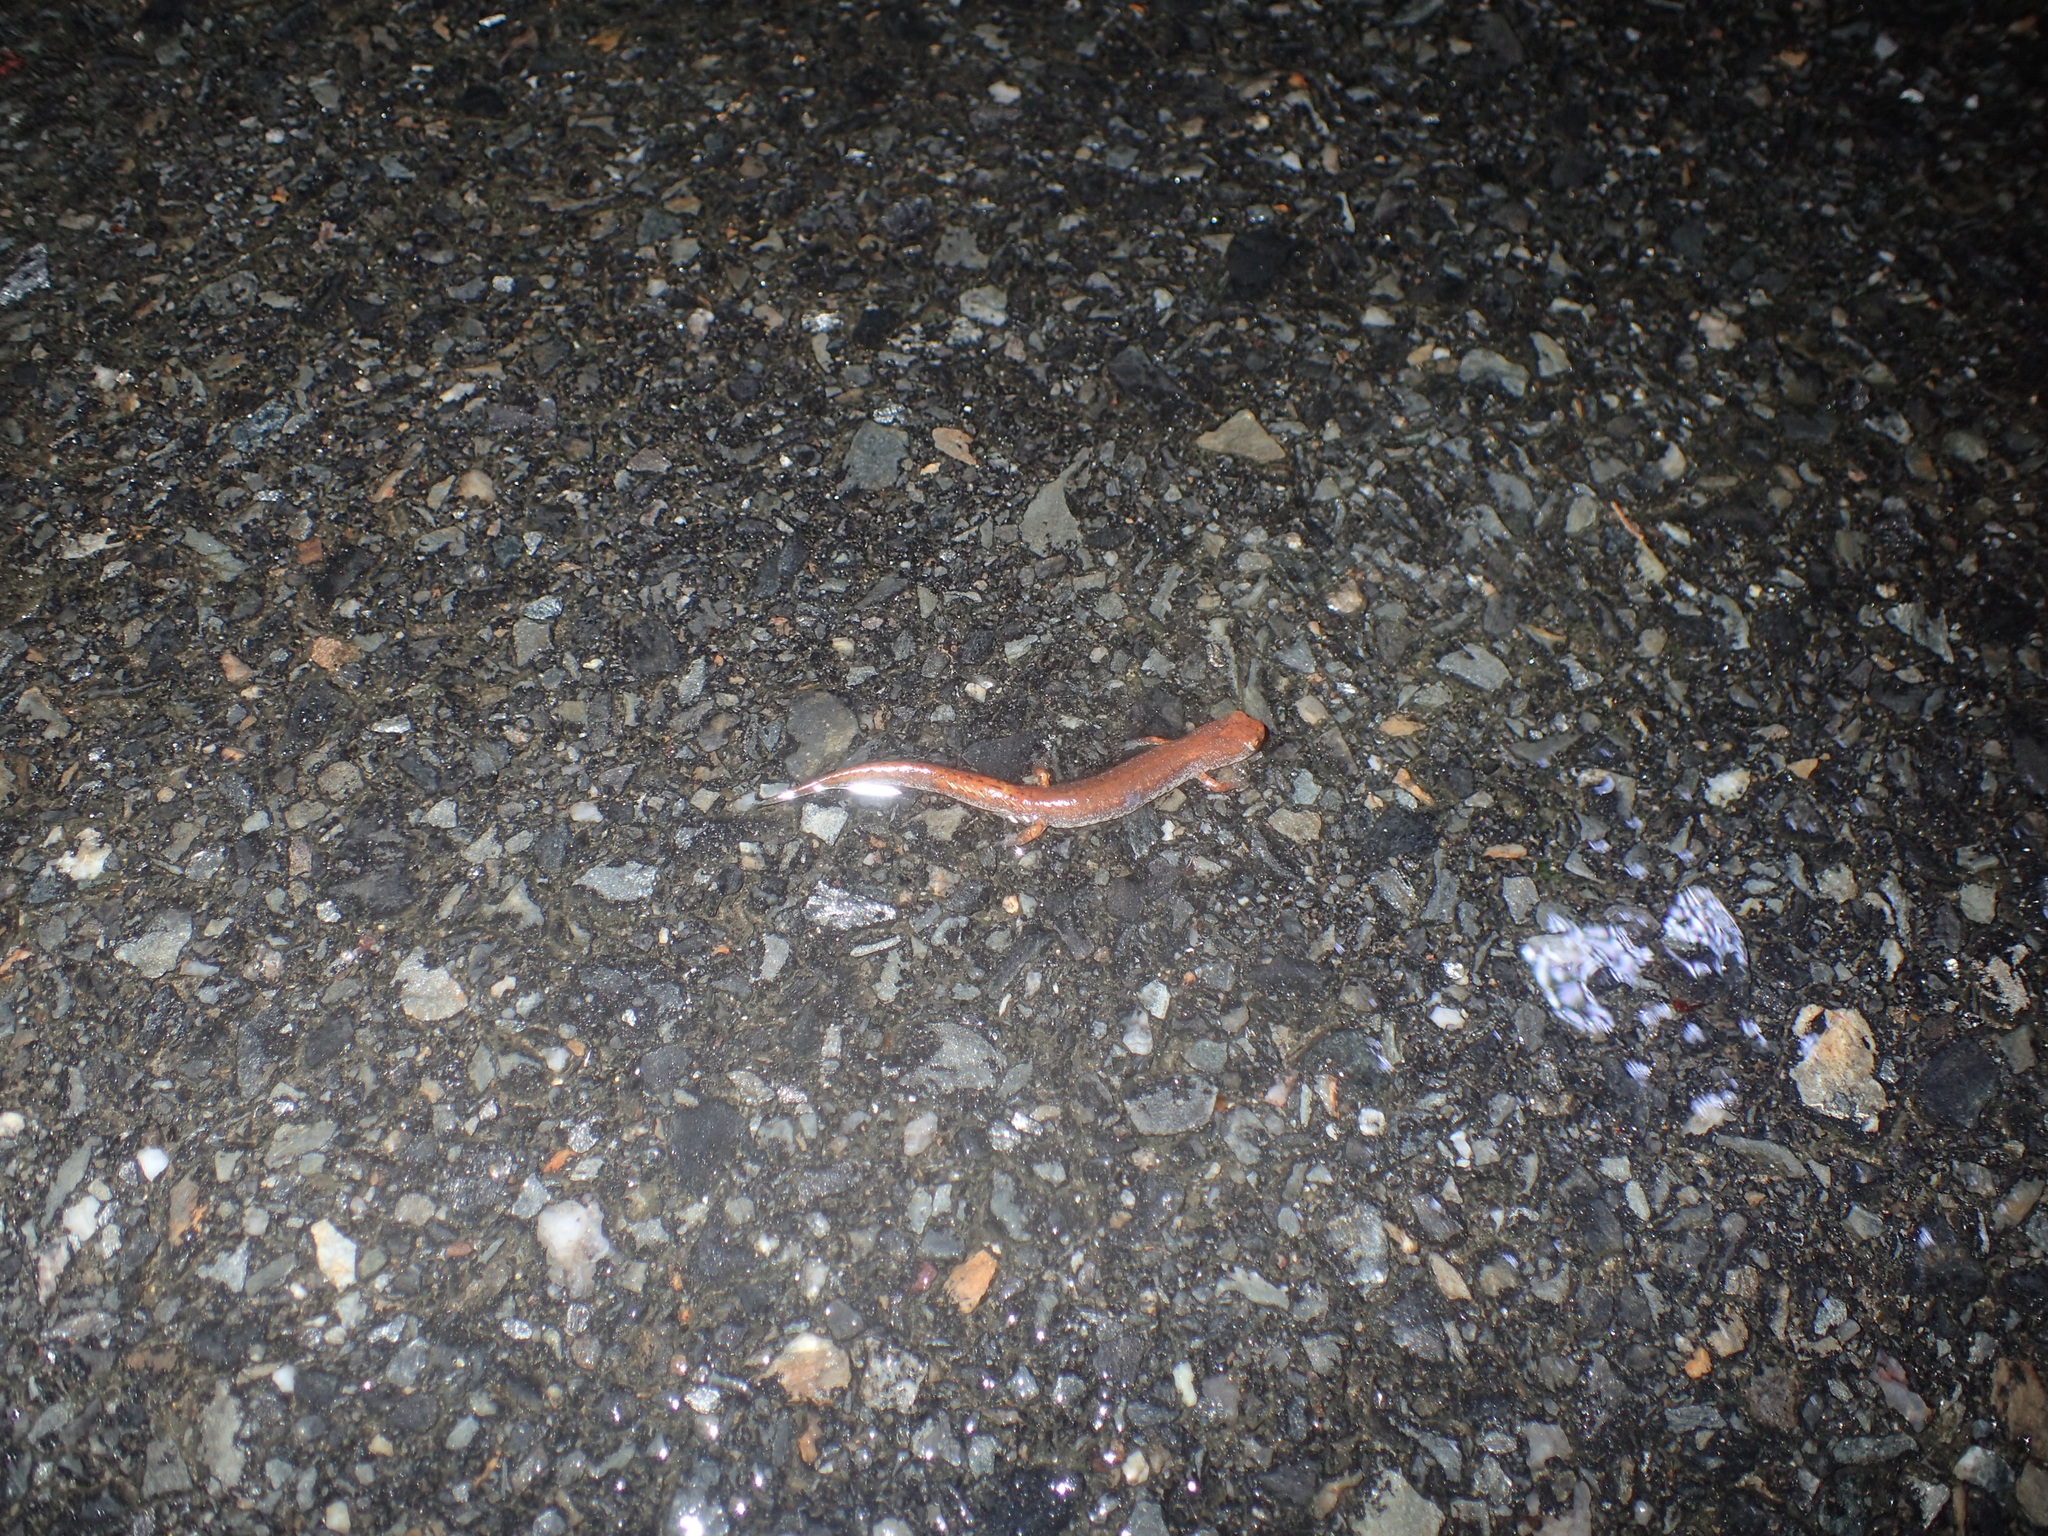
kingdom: Animalia
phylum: Chordata
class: Amphibia
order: Caudata
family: Plethodontidae
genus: Hemidactylium
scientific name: Hemidactylium scutatum
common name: Four-toed salamander
